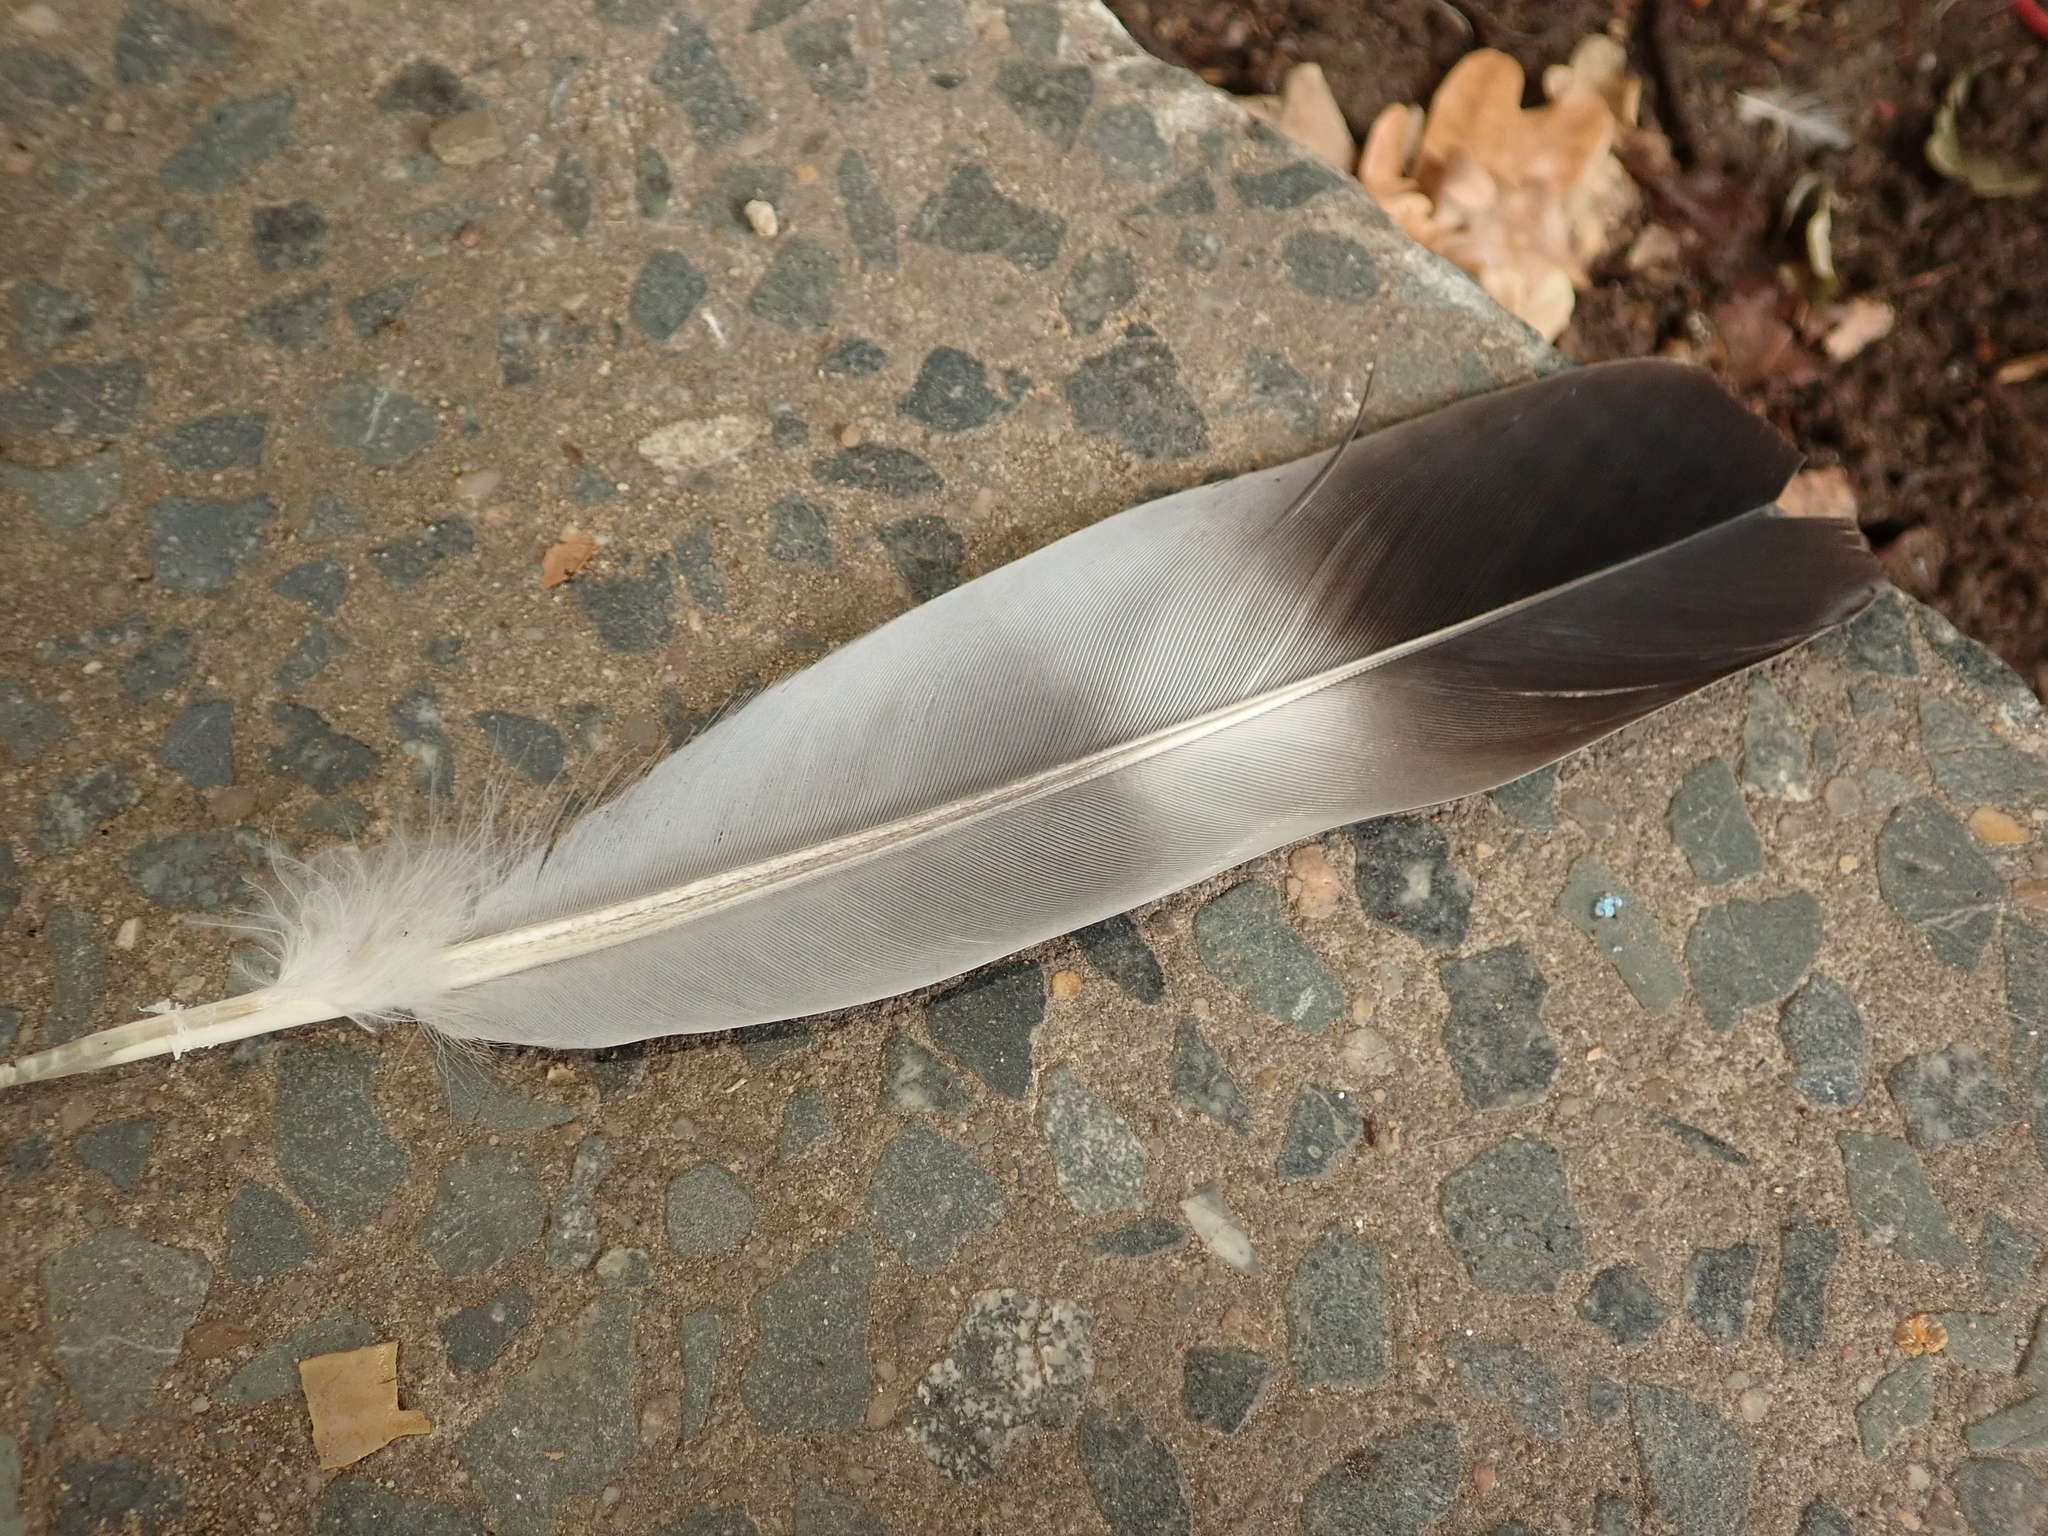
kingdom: Animalia
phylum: Chordata
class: Aves
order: Columbiformes
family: Columbidae
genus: Columba
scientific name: Columba palumbus
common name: Common wood pigeon
